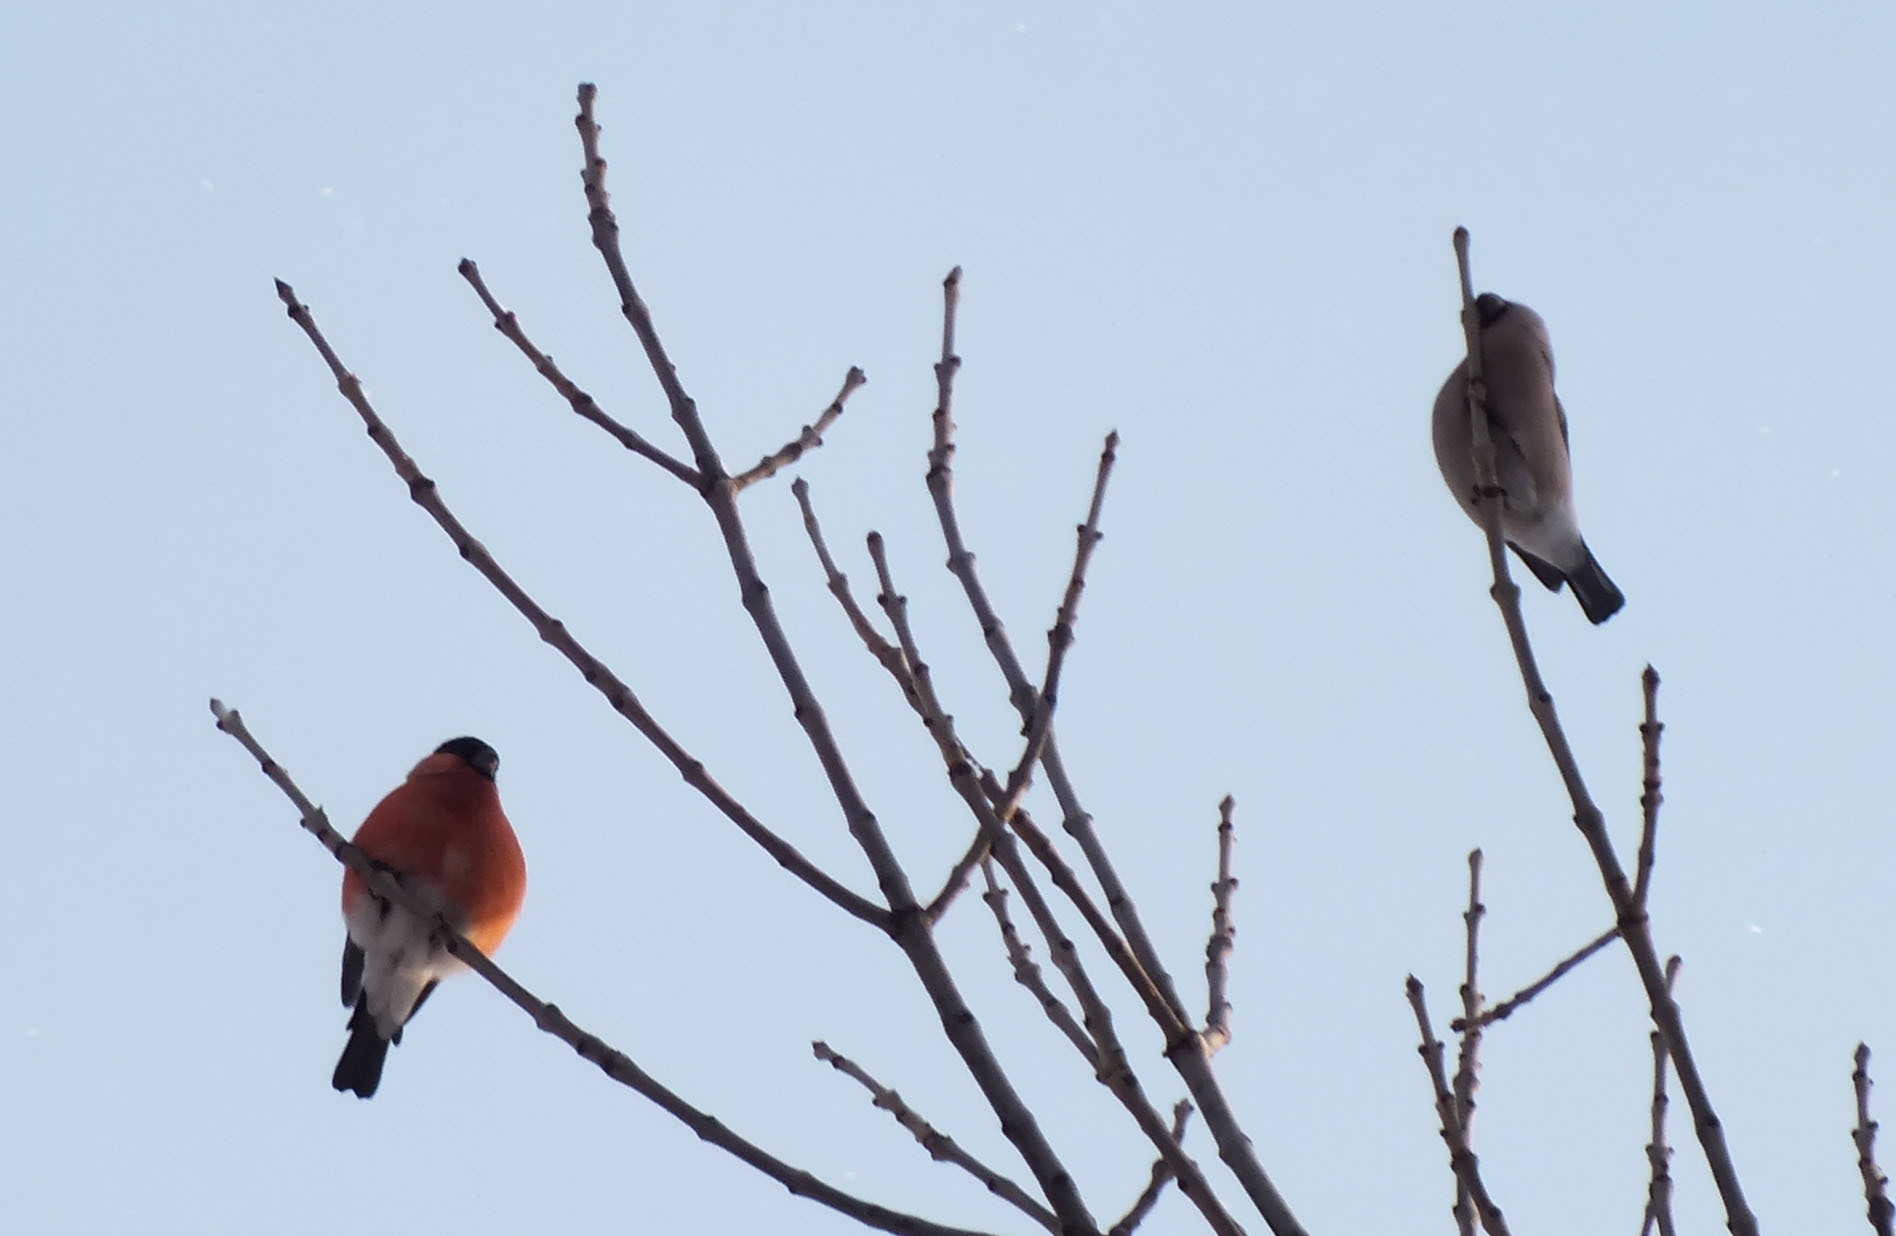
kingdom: Animalia
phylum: Chordata
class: Aves
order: Passeriformes
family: Fringillidae
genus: Pyrrhula
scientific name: Pyrrhula pyrrhula
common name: Eurasian bullfinch
